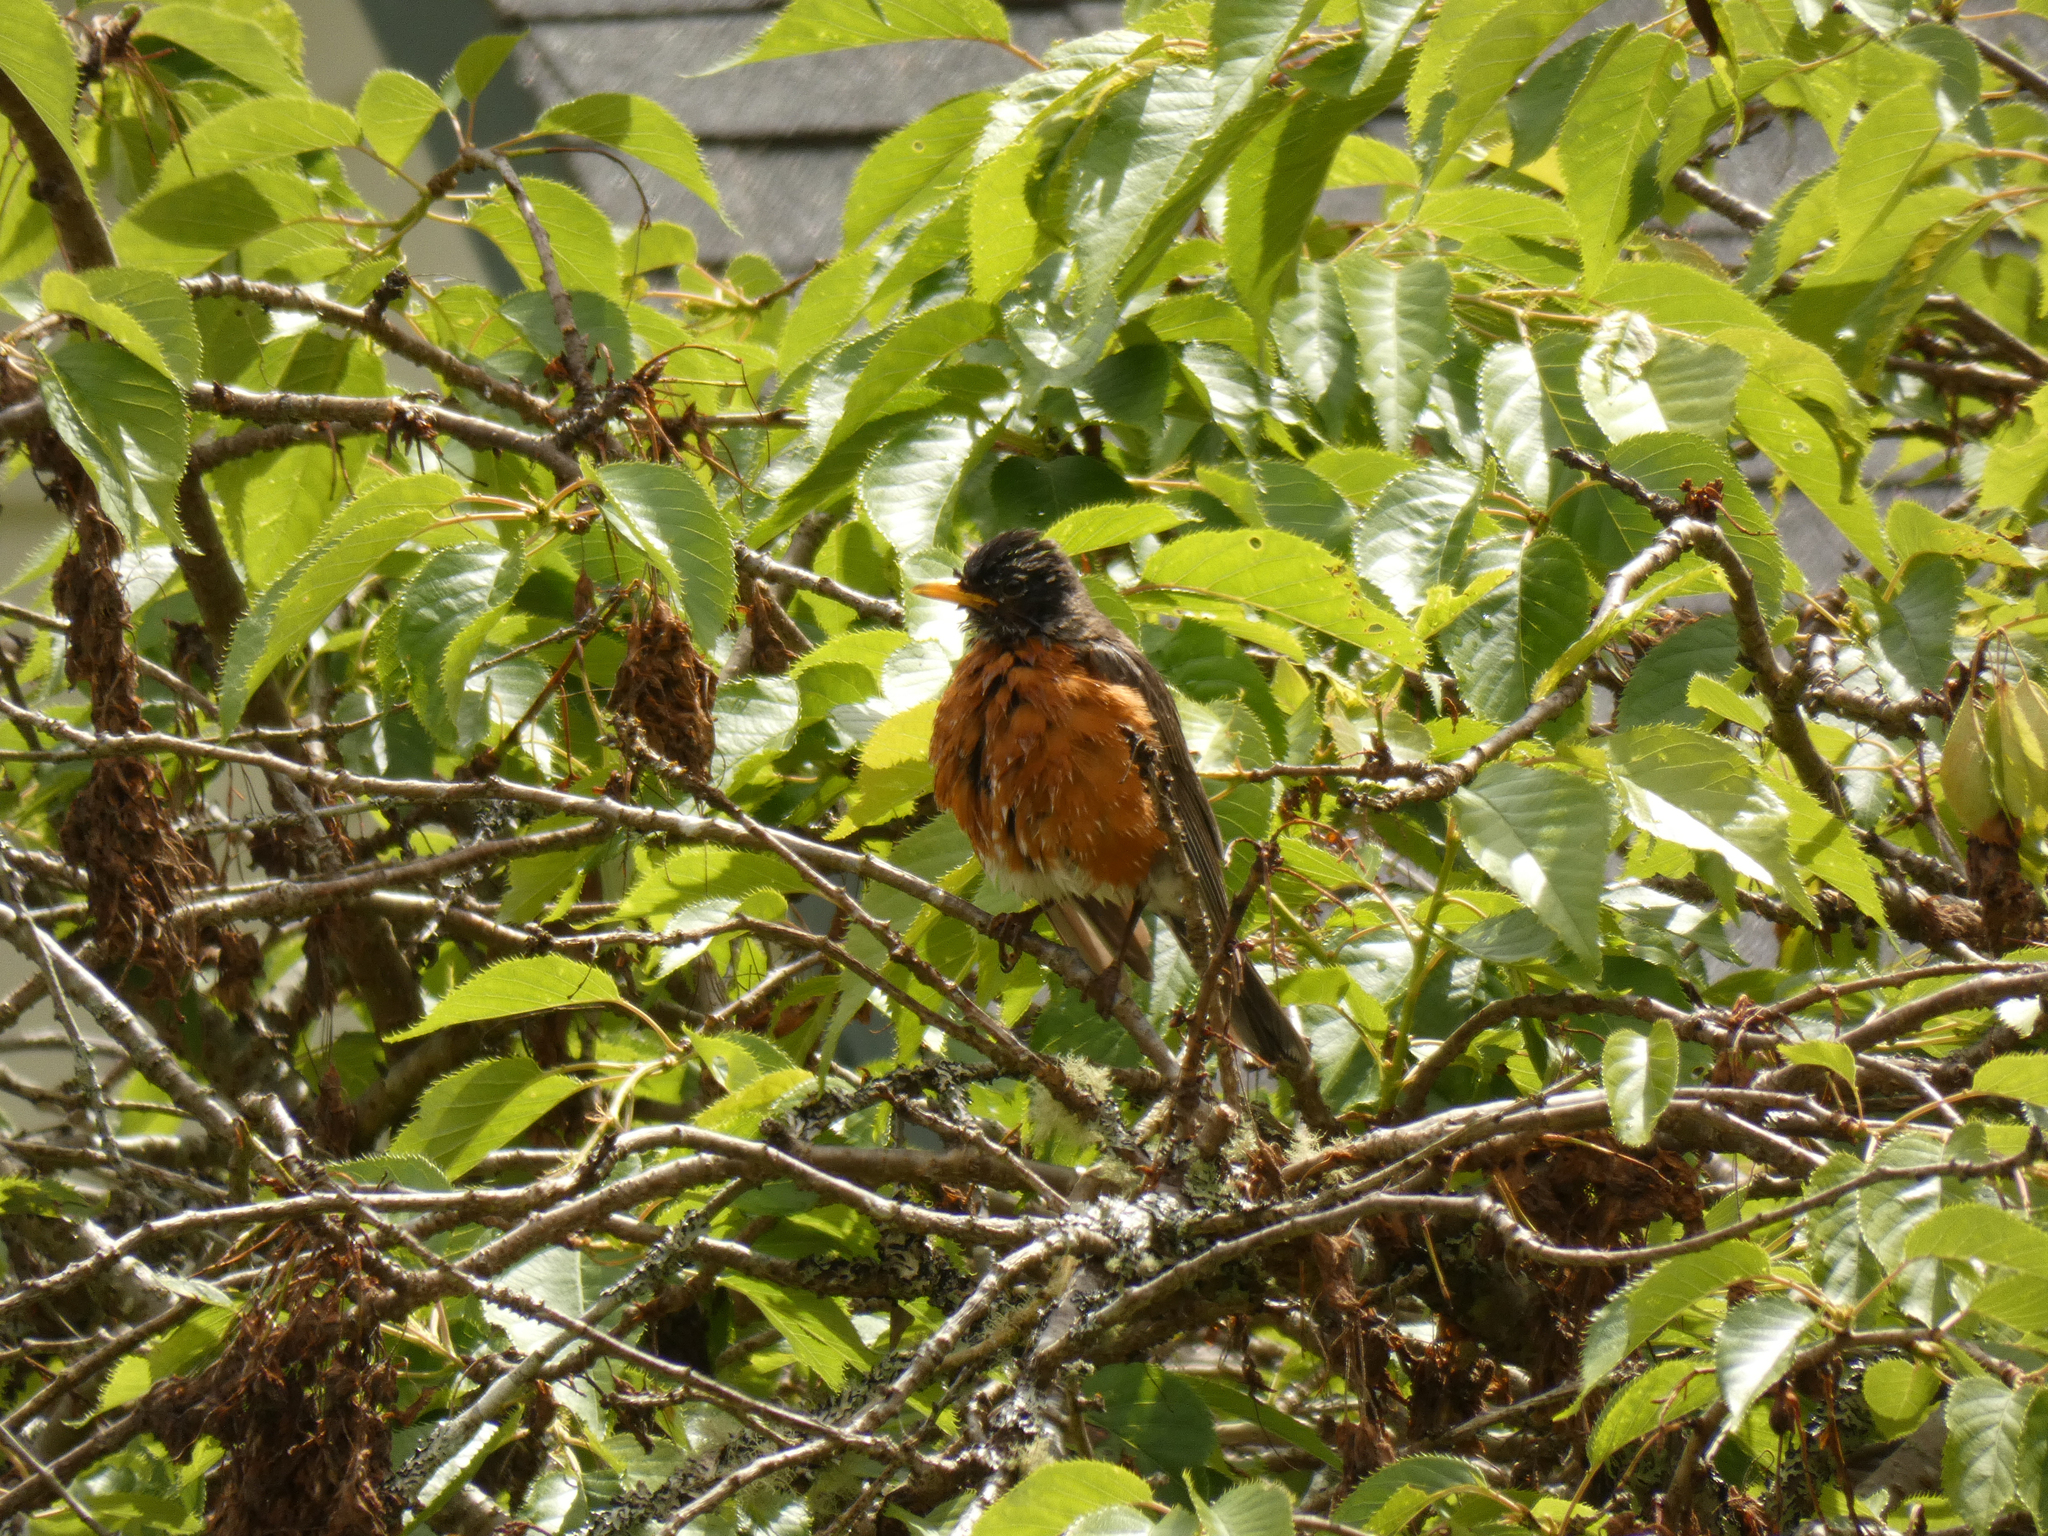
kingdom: Animalia
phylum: Chordata
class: Aves
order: Passeriformes
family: Turdidae
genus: Turdus
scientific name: Turdus migratorius
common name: American robin
